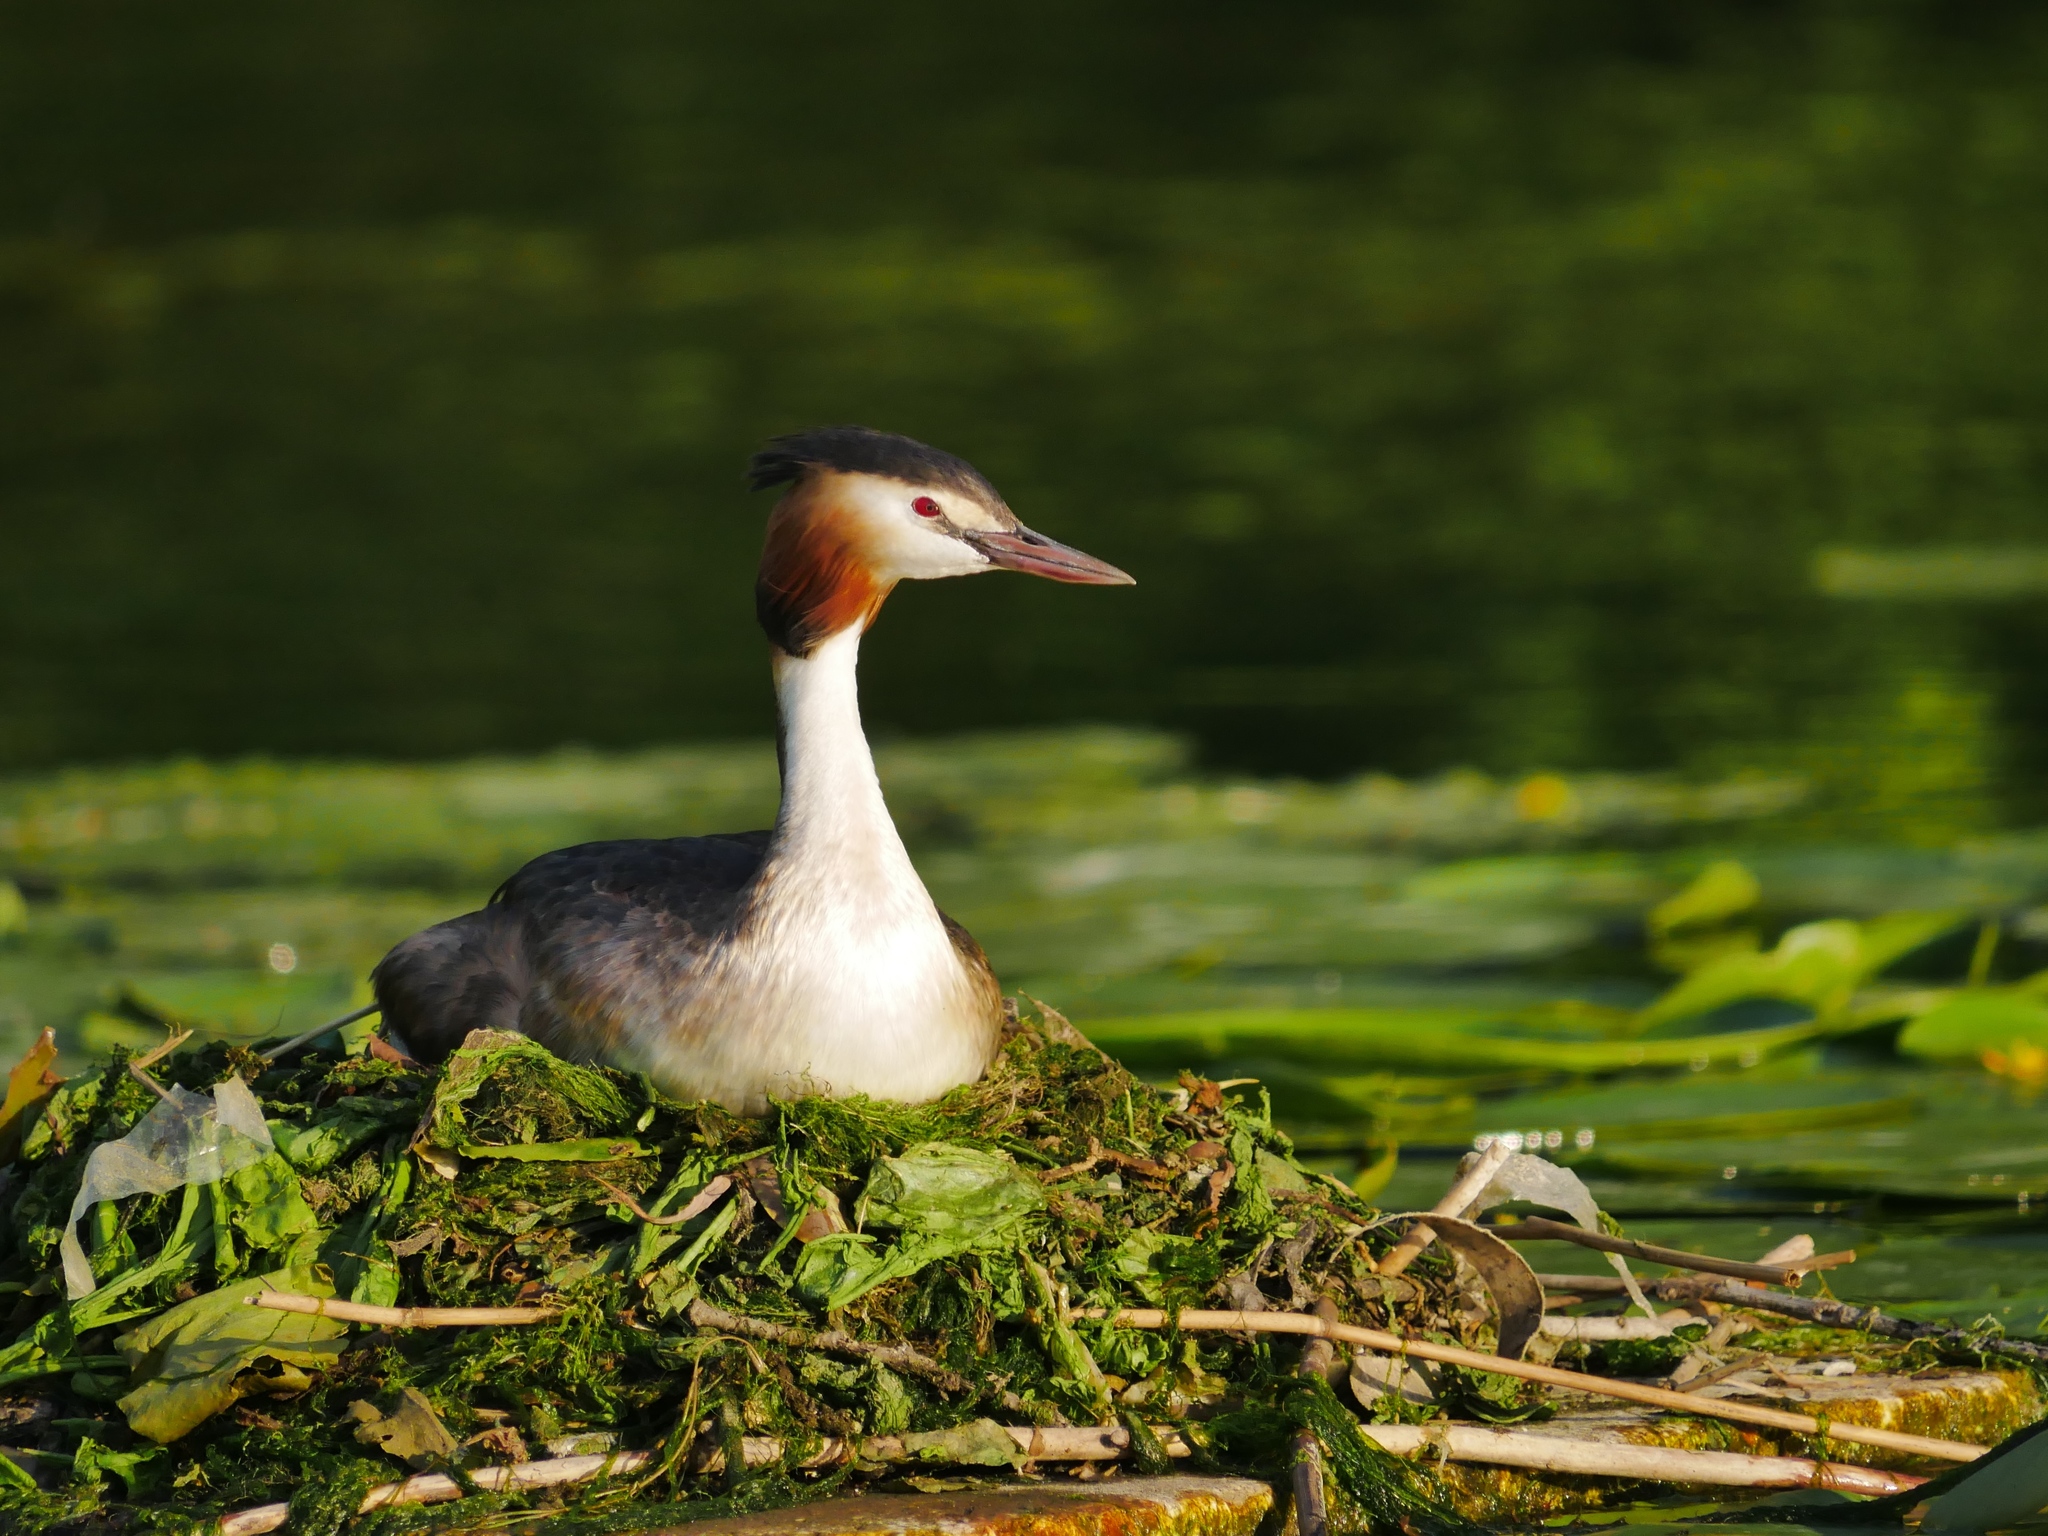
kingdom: Animalia
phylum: Chordata
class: Aves
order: Podicipediformes
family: Podicipedidae
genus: Podiceps
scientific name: Podiceps cristatus
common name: Great crested grebe
